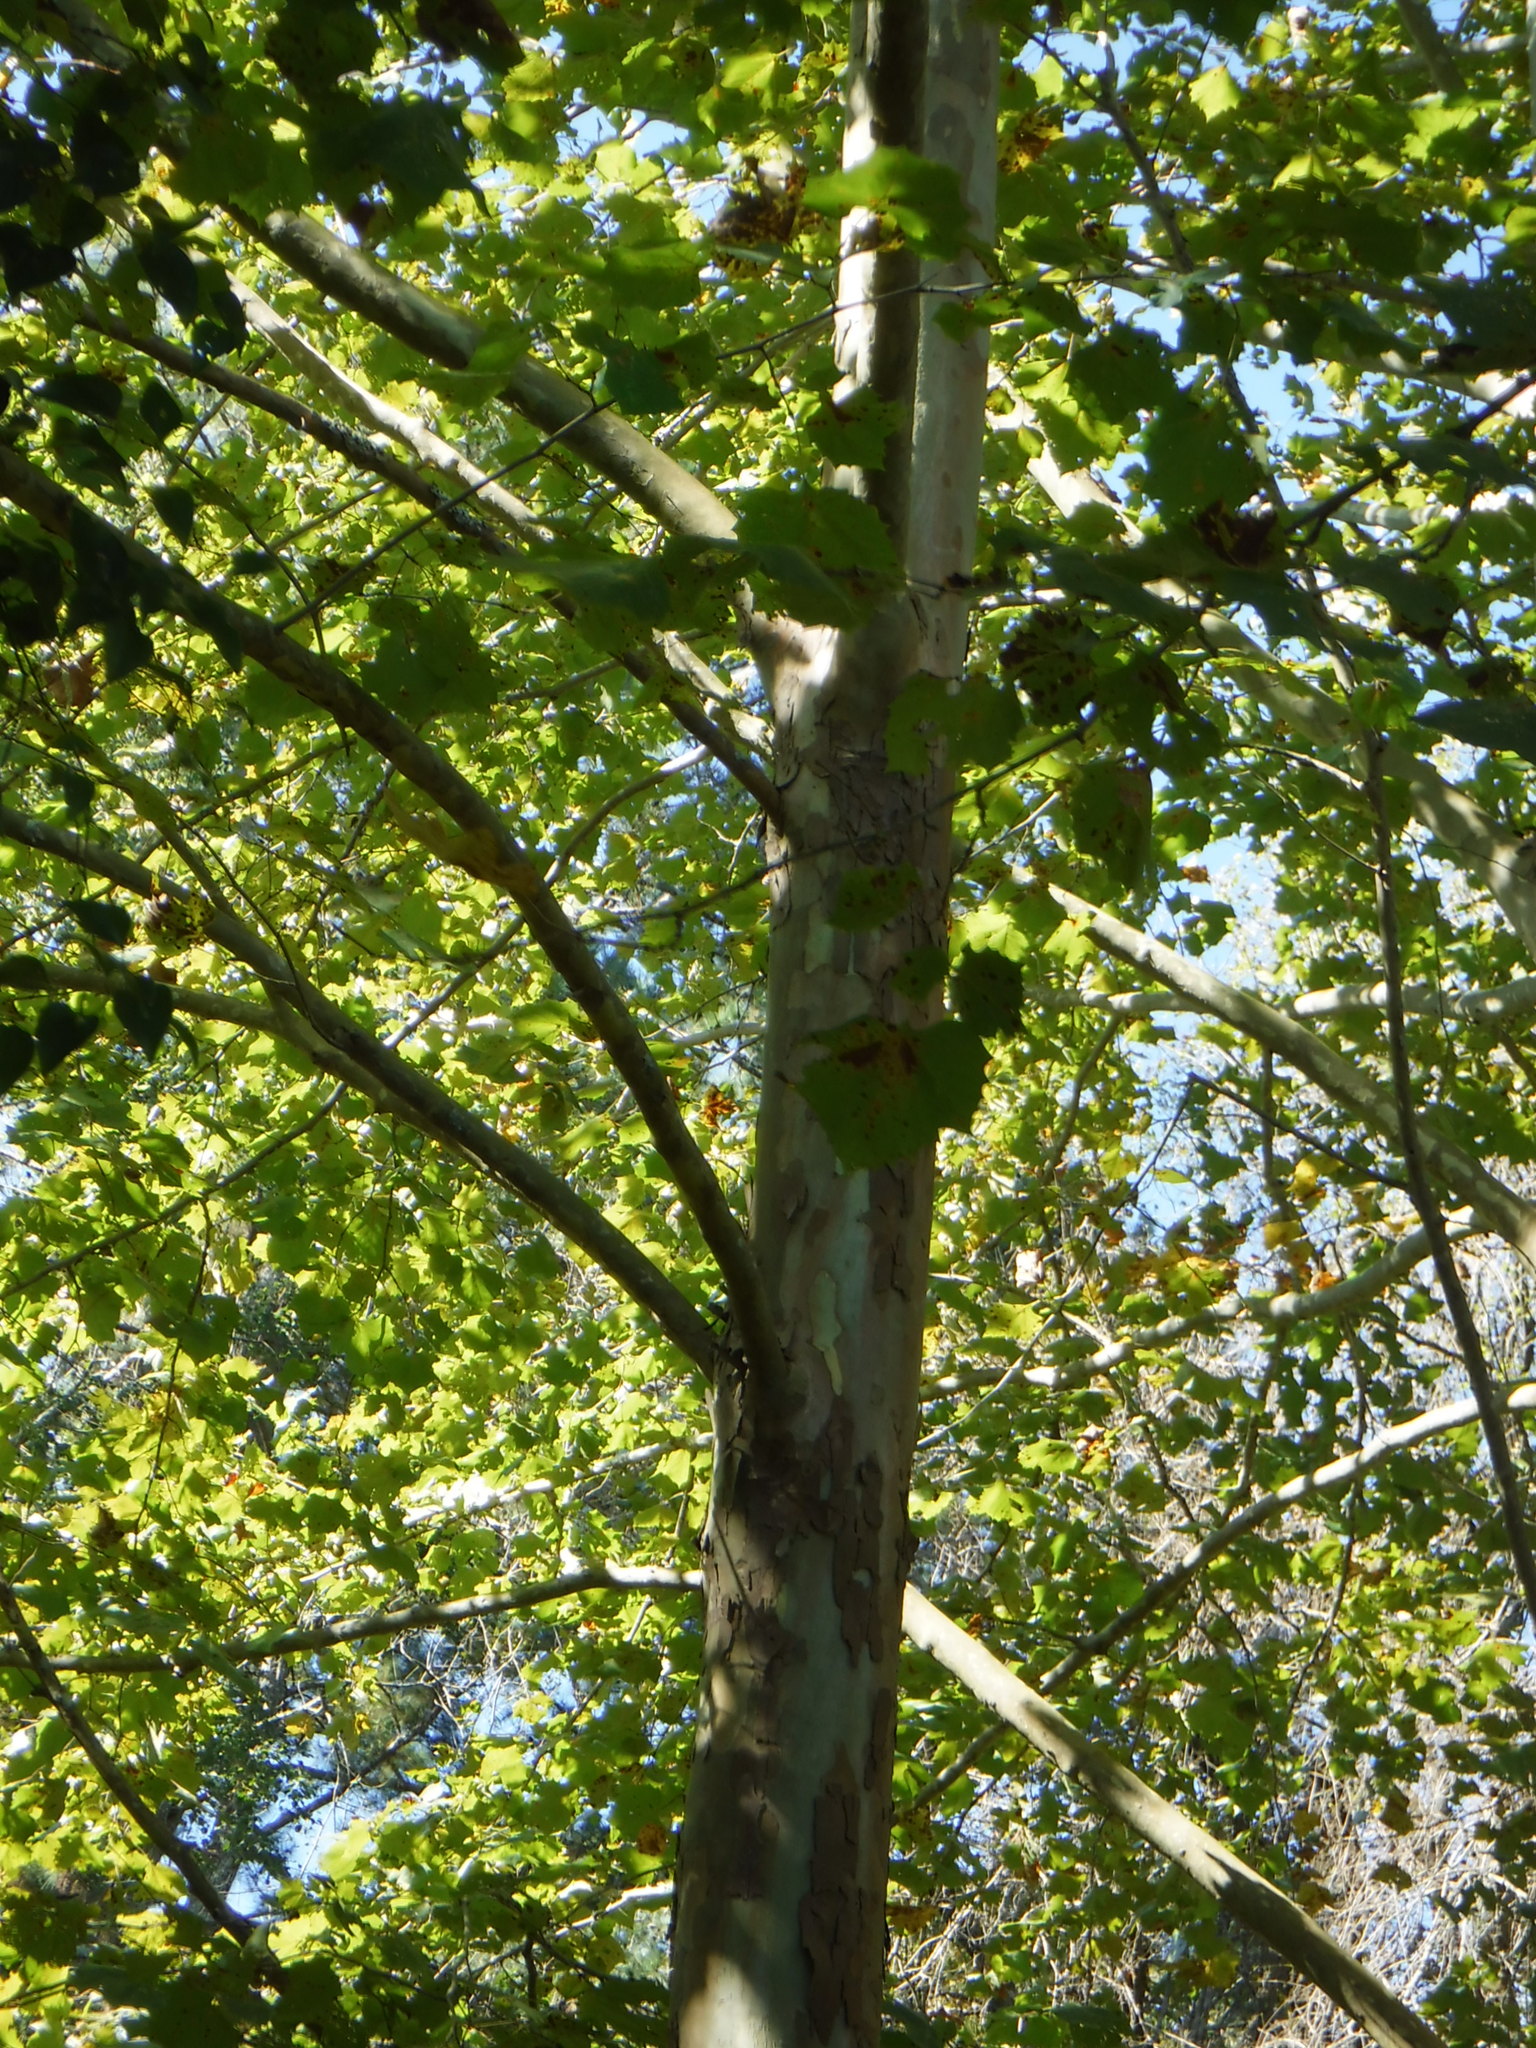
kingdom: Plantae
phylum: Tracheophyta
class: Magnoliopsida
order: Proteales
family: Platanaceae
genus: Platanus
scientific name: Platanus occidentalis
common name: American sycamore
